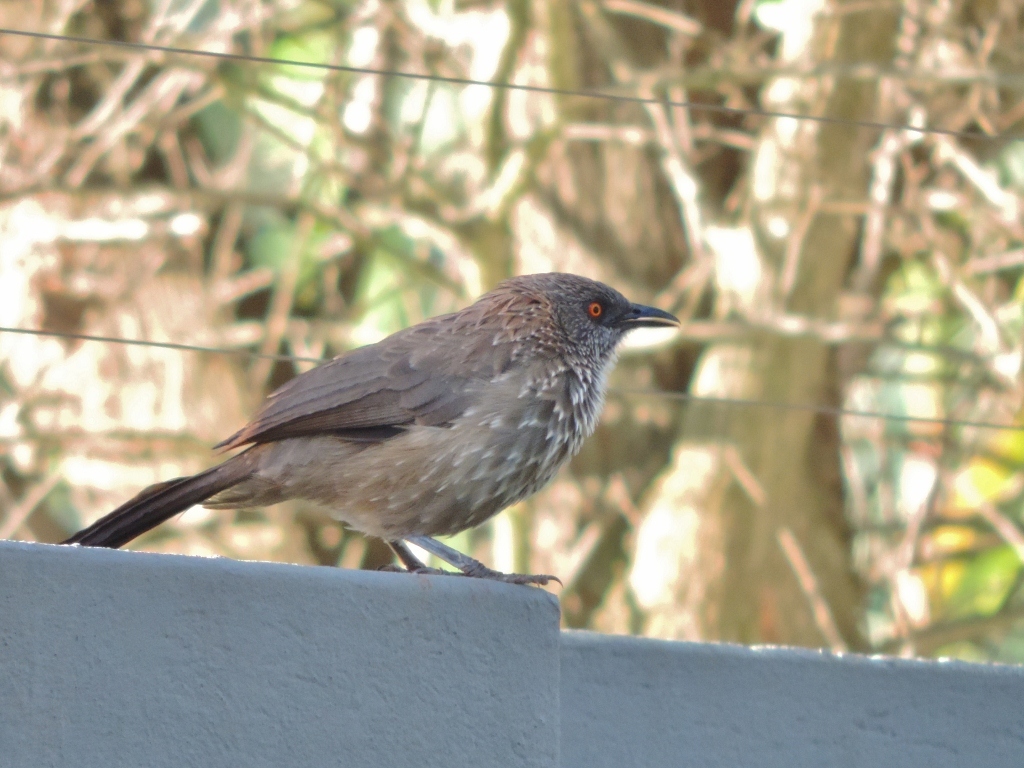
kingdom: Animalia
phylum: Chordata
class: Aves
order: Passeriformes
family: Leiothrichidae
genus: Turdoides
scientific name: Turdoides jardineii
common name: Arrow-marked babbler
